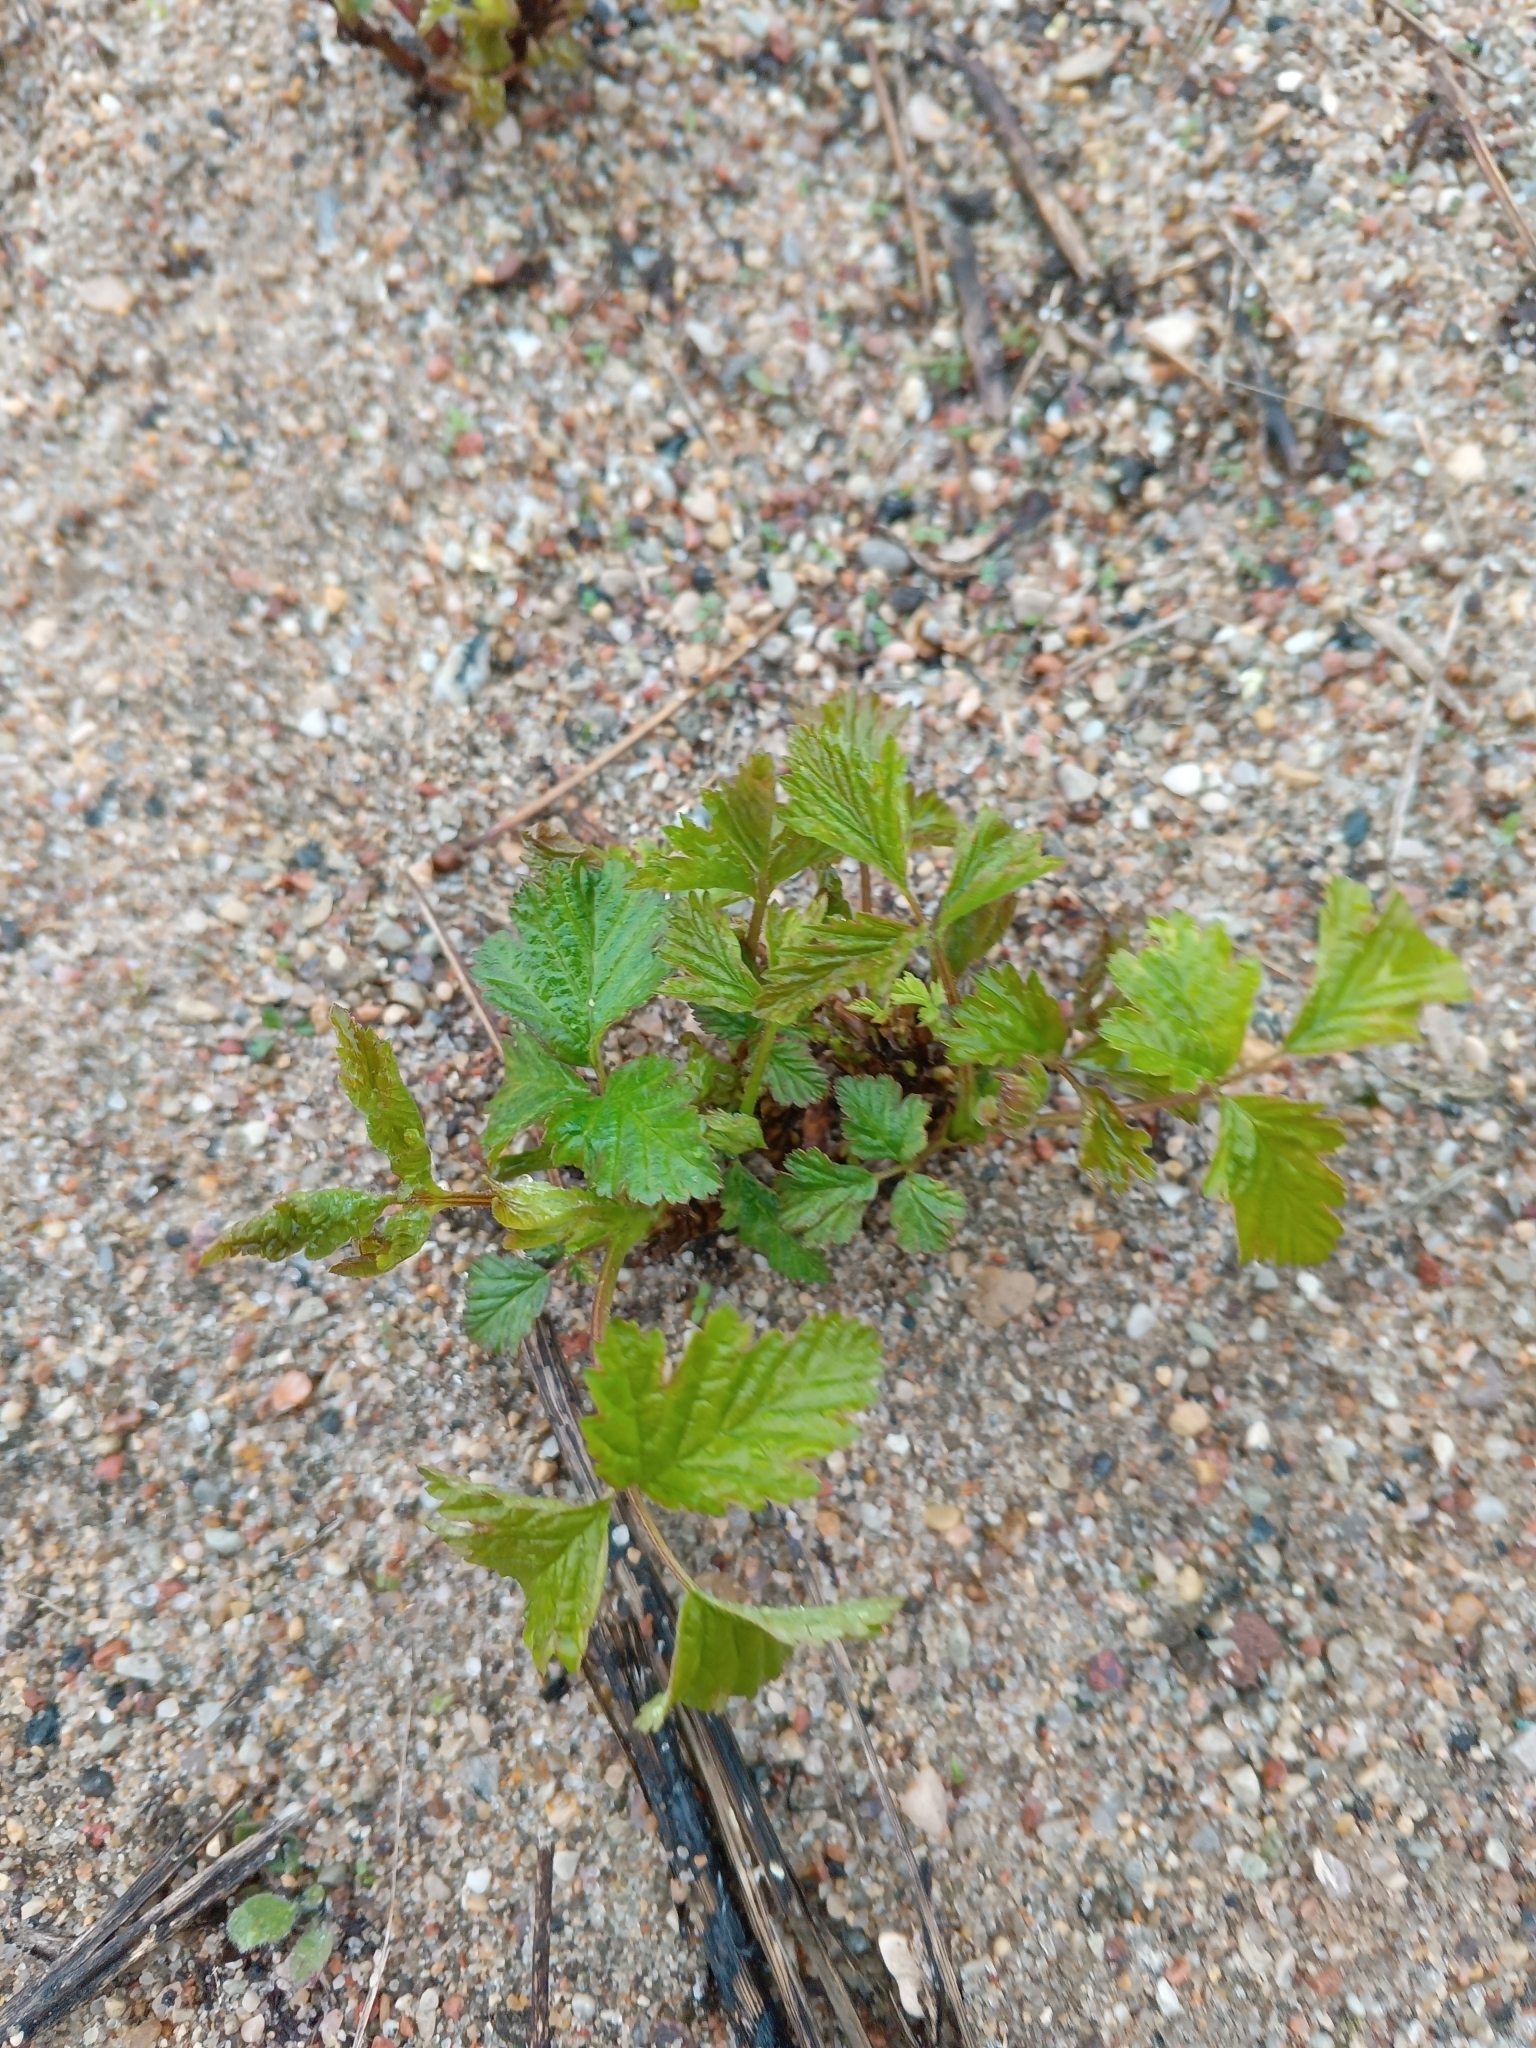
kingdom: Plantae
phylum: Tracheophyta
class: Magnoliopsida
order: Rosales
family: Rosaceae
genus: Rubus
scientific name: Rubus caesius
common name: Dewberry
